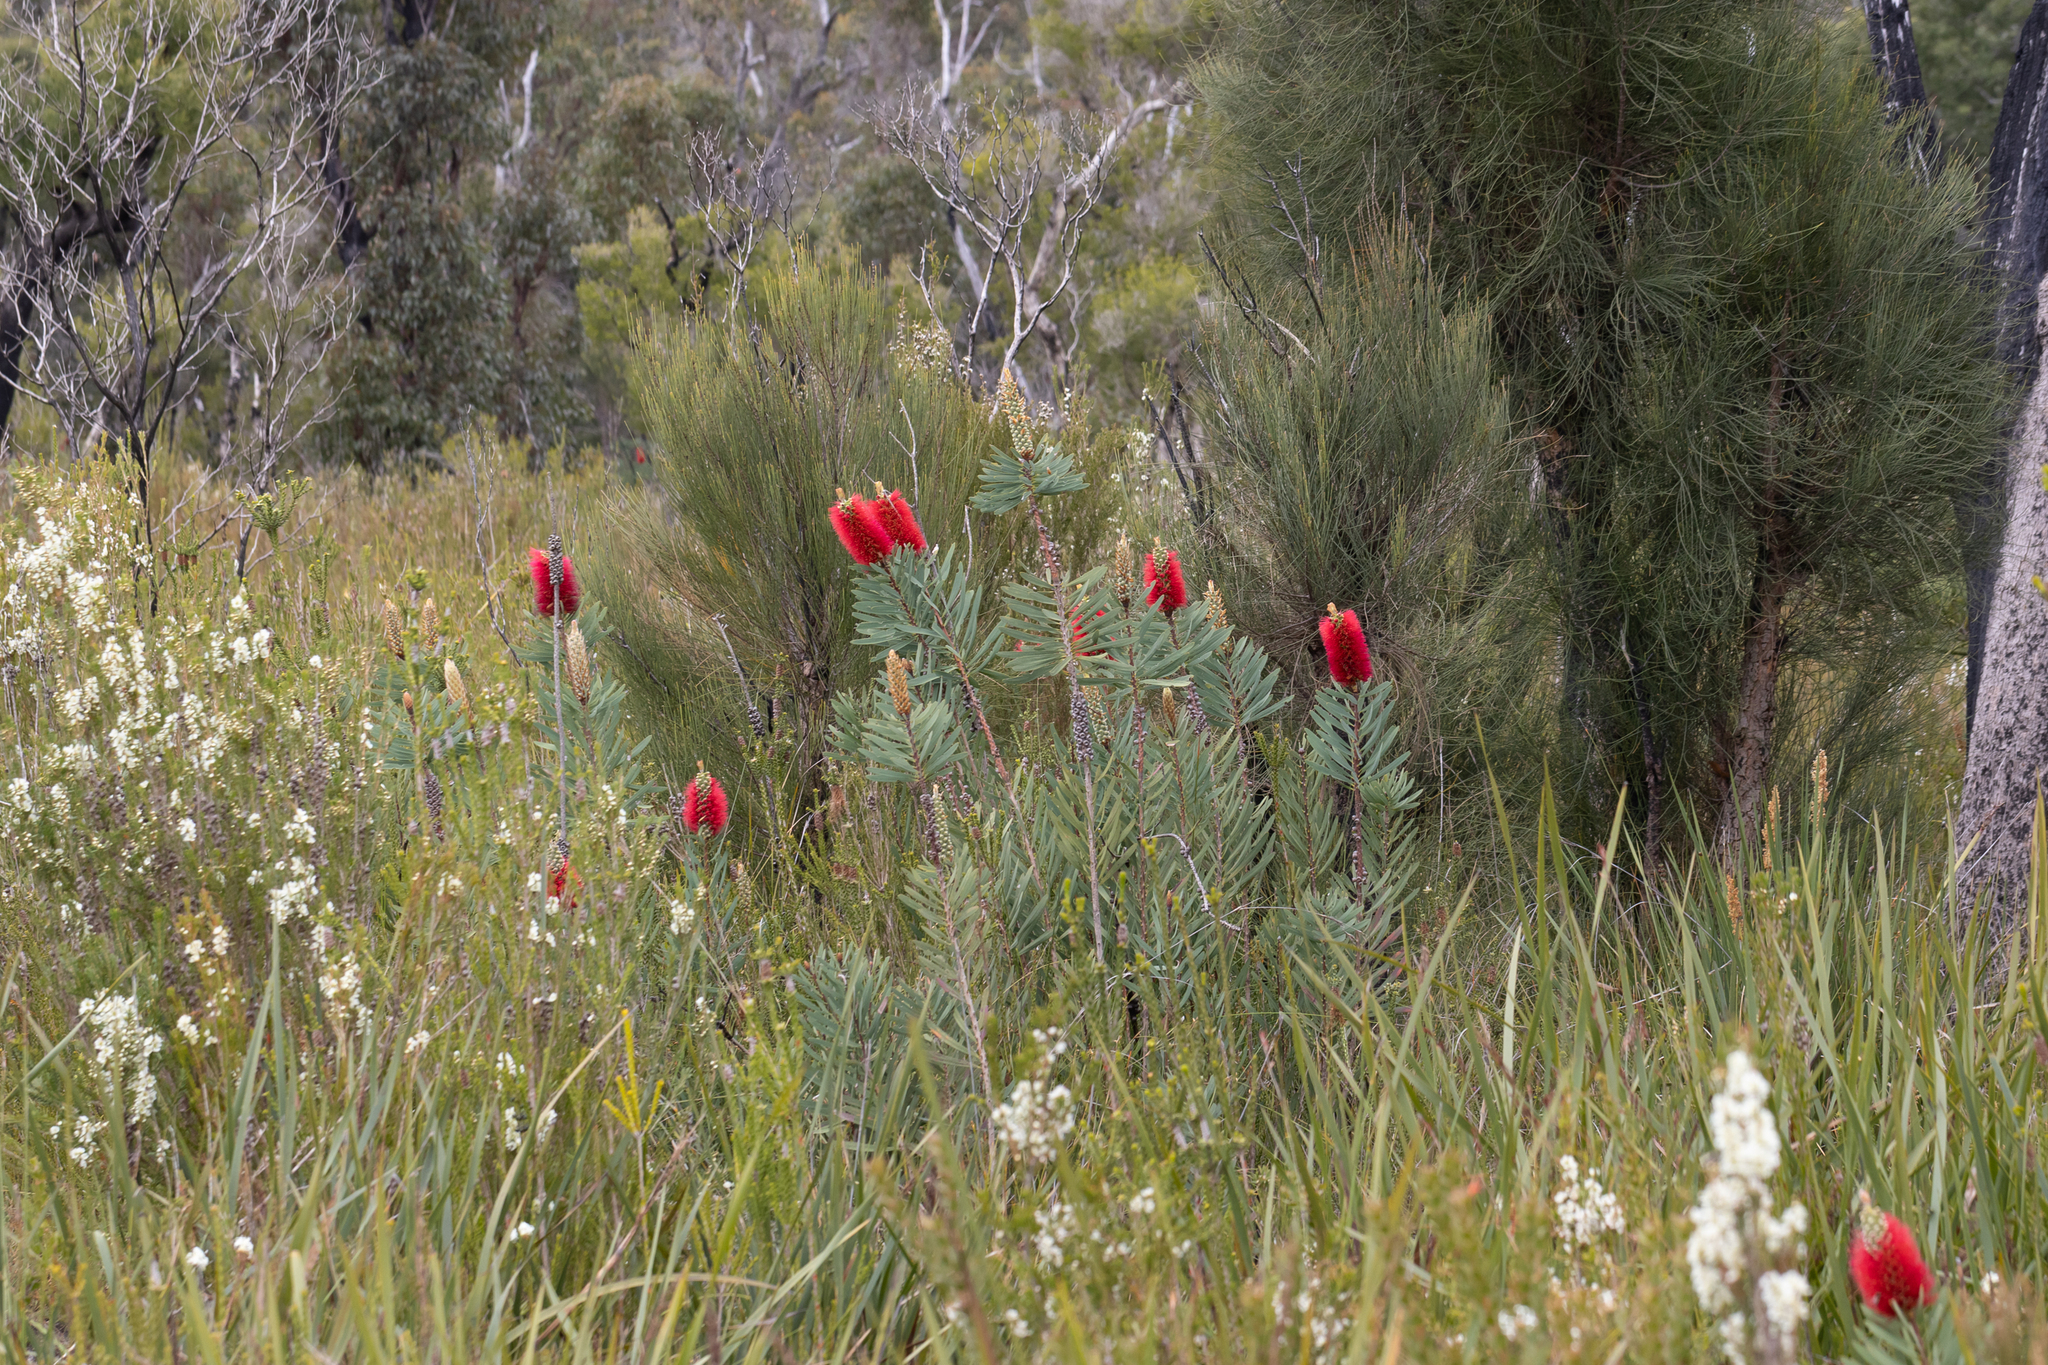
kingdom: Plantae
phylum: Tracheophyta
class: Magnoliopsida
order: Myrtales
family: Myrtaceae
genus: Melaleuca
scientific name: Melaleuca glauca
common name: Albany-bottlebrush
